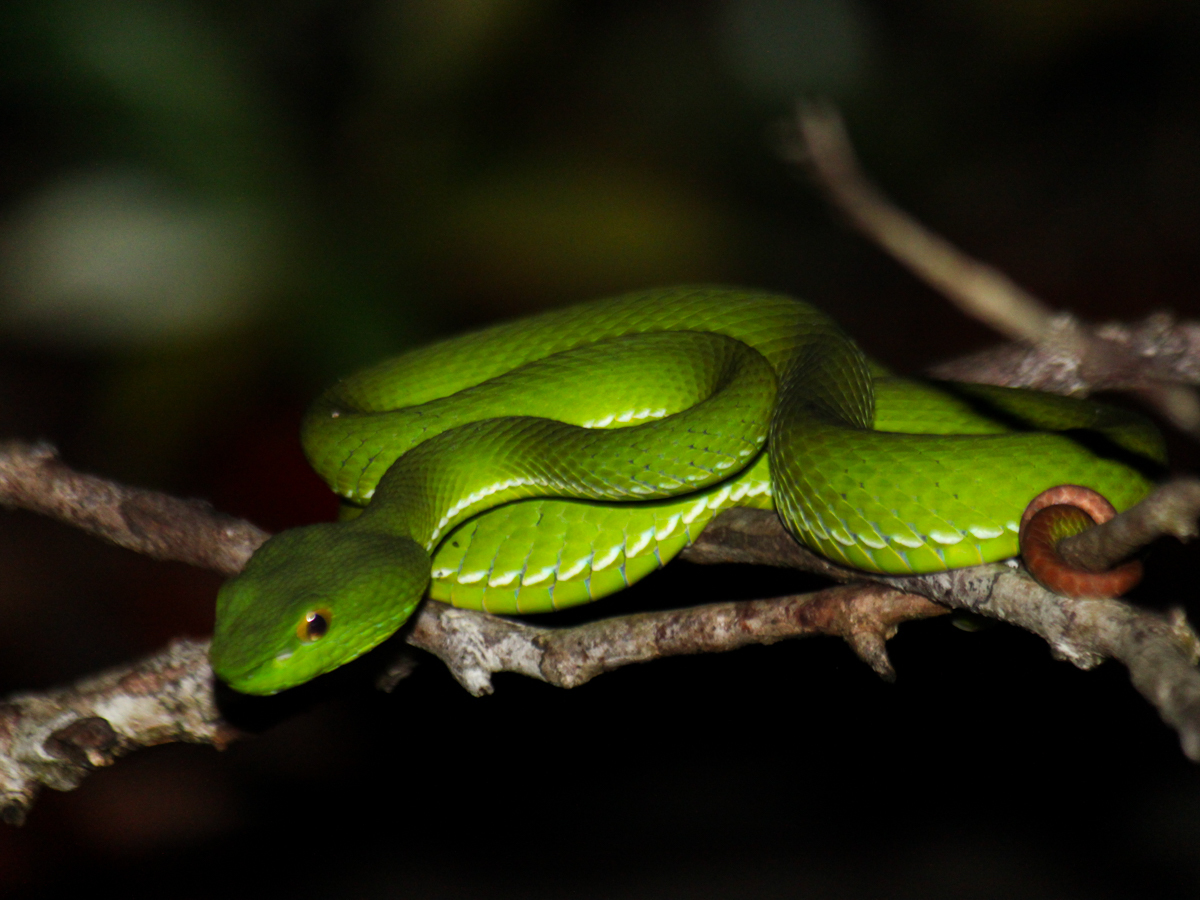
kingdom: Animalia
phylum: Chordata
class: Squamata
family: Viperidae
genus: Trimeresurus
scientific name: Trimeresurus cardamomensis
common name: Cardamom mountains green pitviper
